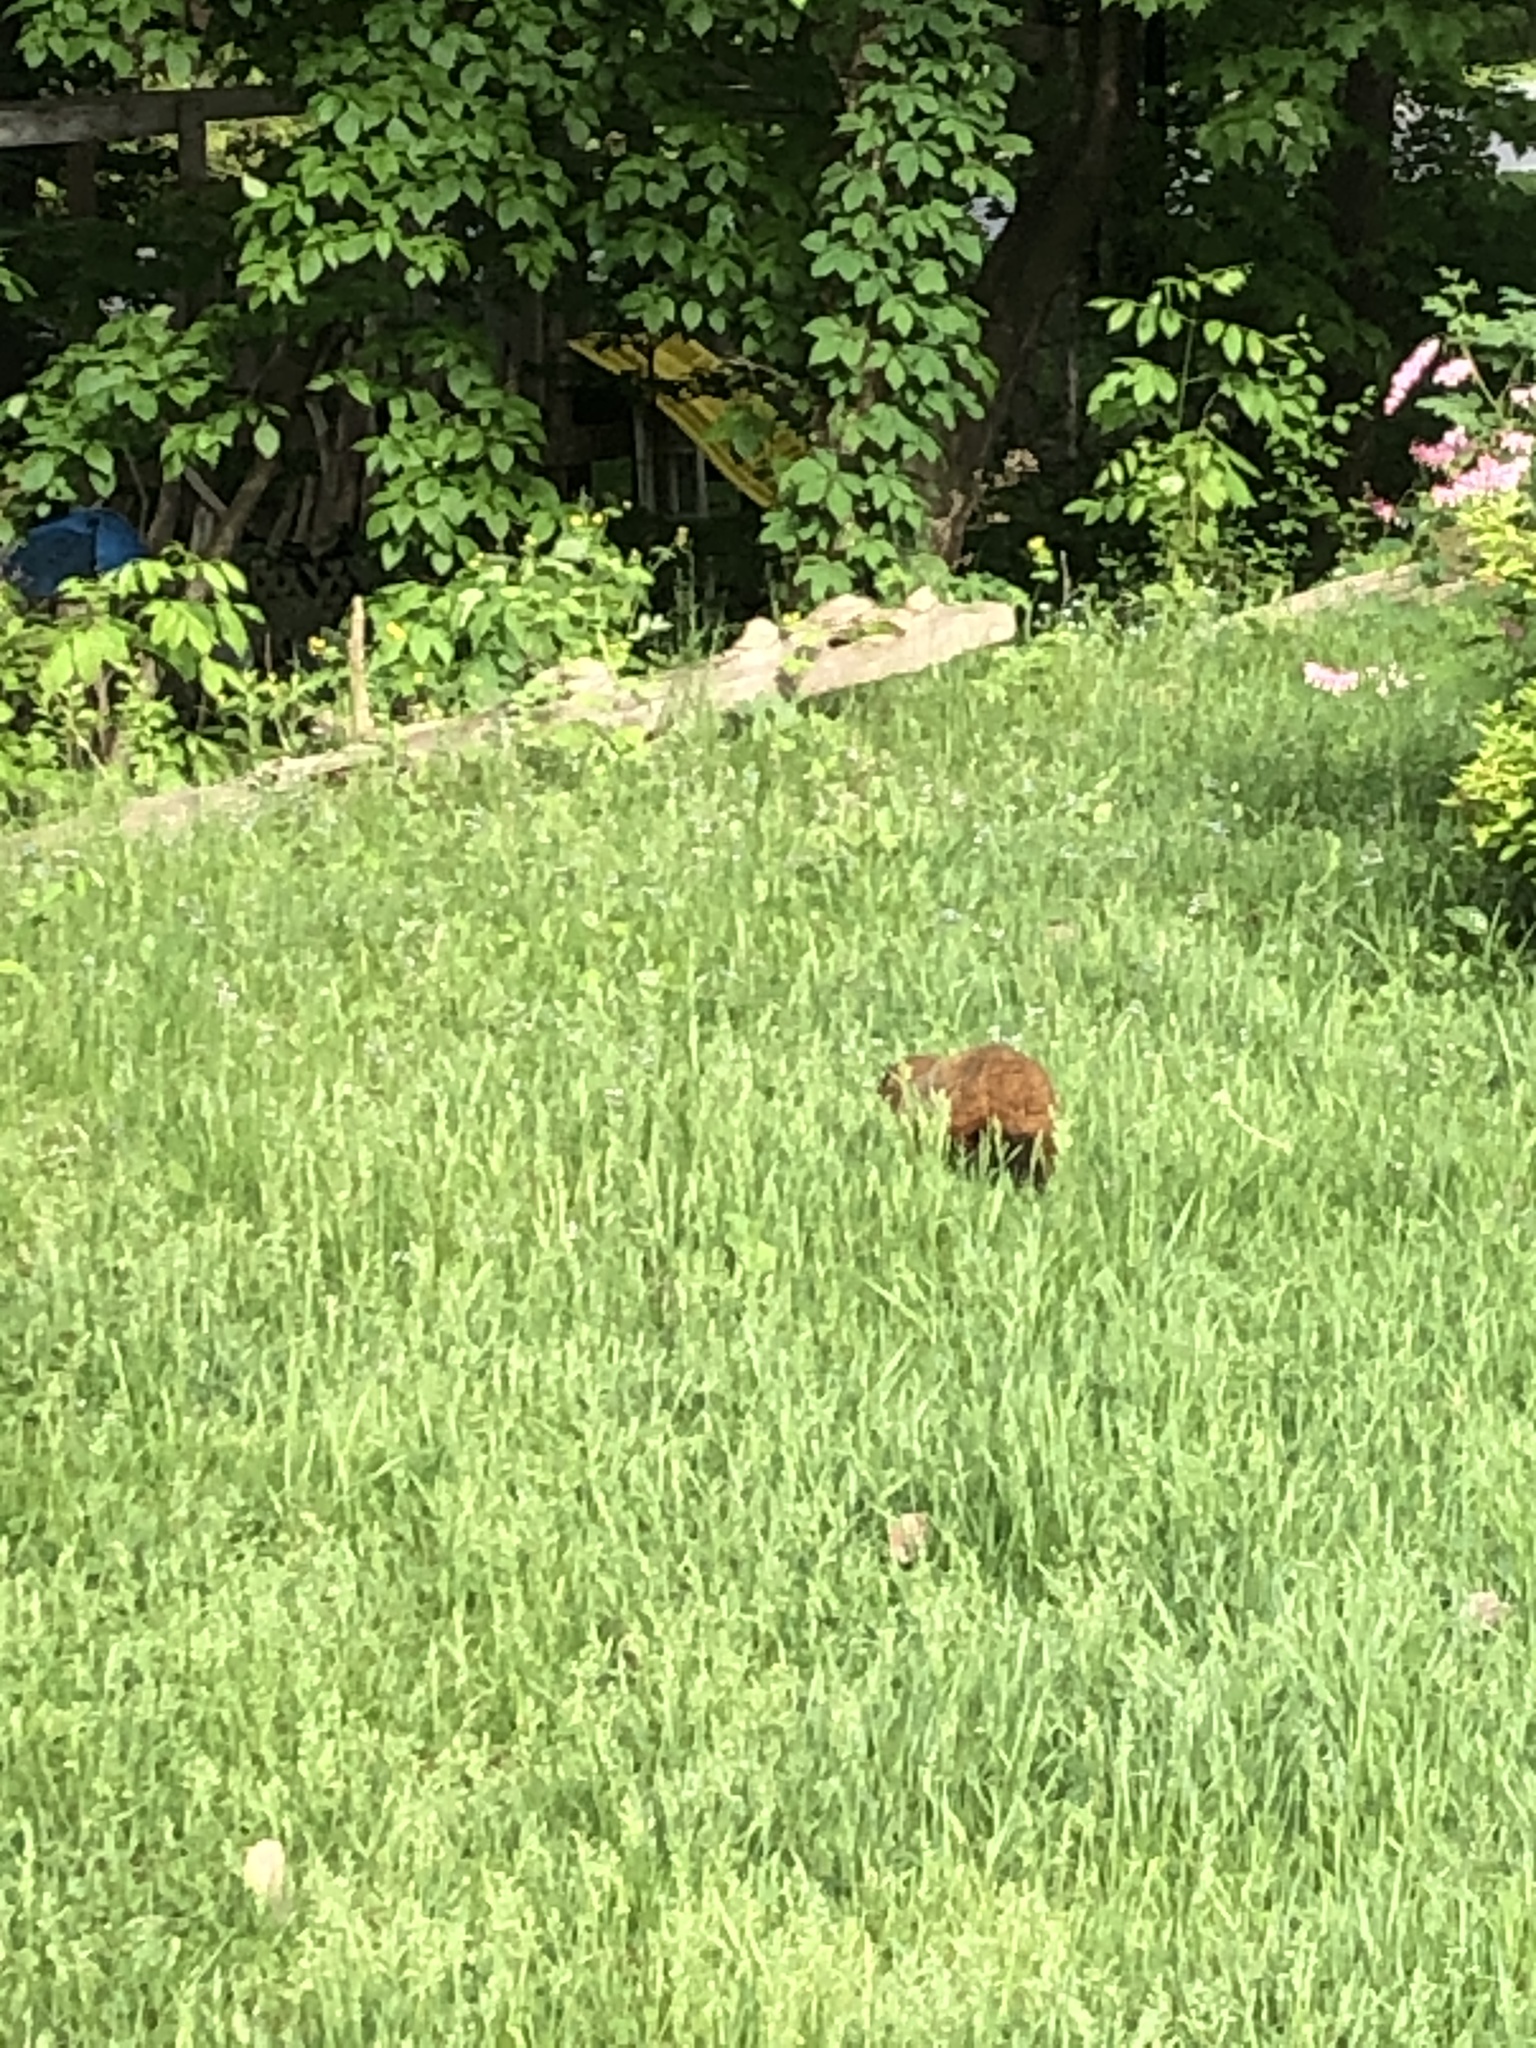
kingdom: Animalia
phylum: Chordata
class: Mammalia
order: Rodentia
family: Sciuridae
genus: Marmota
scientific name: Marmota monax
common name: Groundhog
